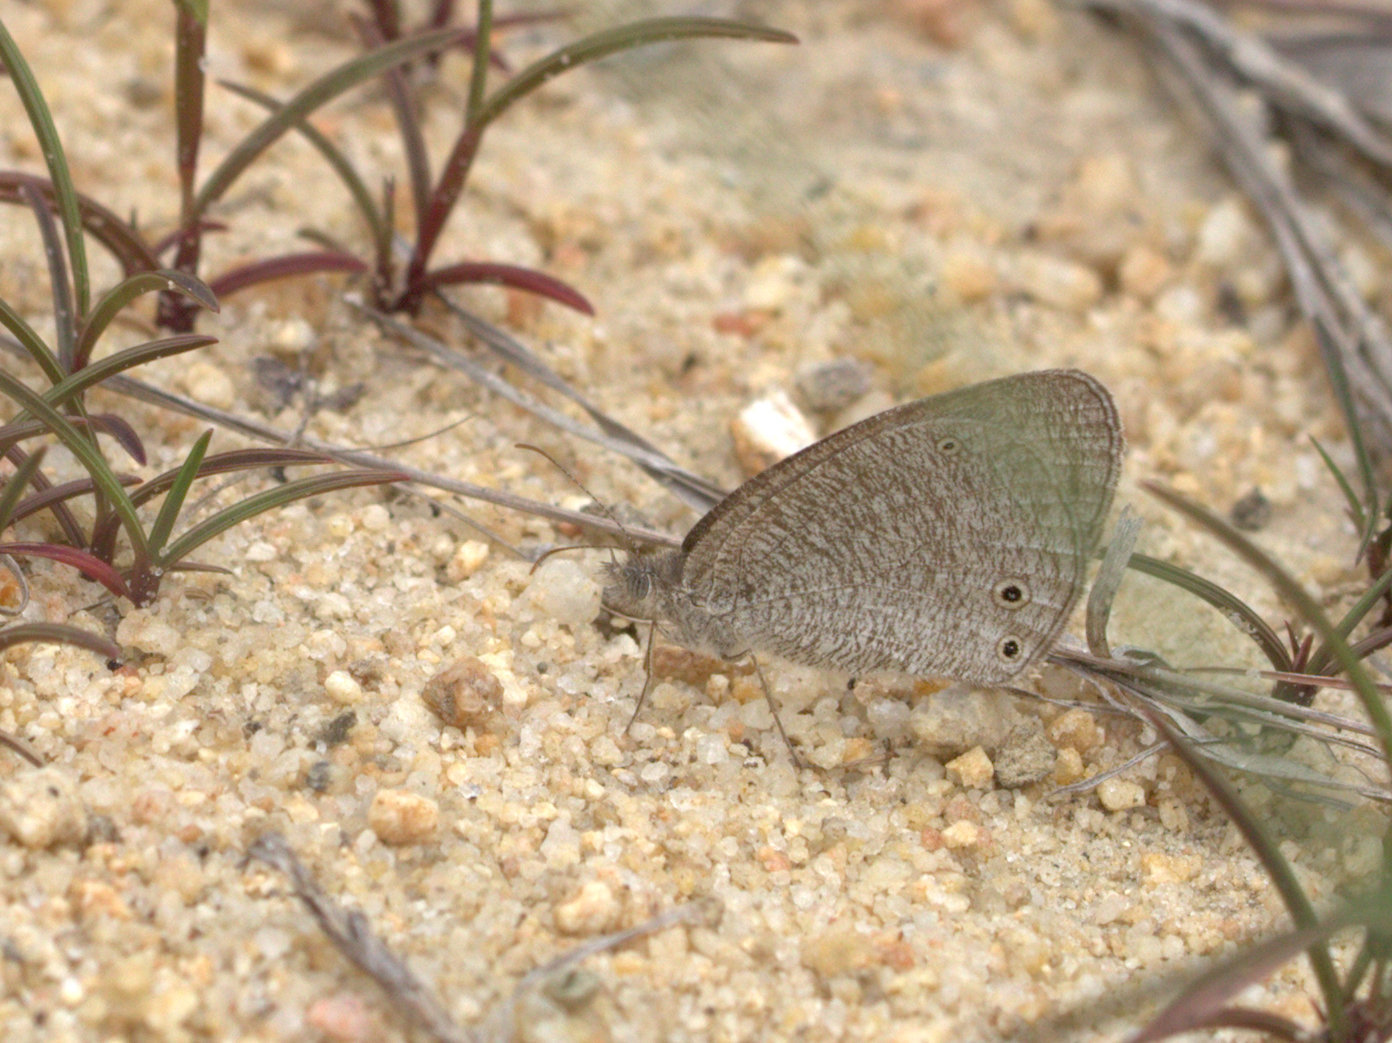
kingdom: Animalia
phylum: Arthropoda
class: Insecta
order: Lepidoptera
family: Nymphalidae
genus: Ypthima
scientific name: Ypthima asterope
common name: African ringlet
